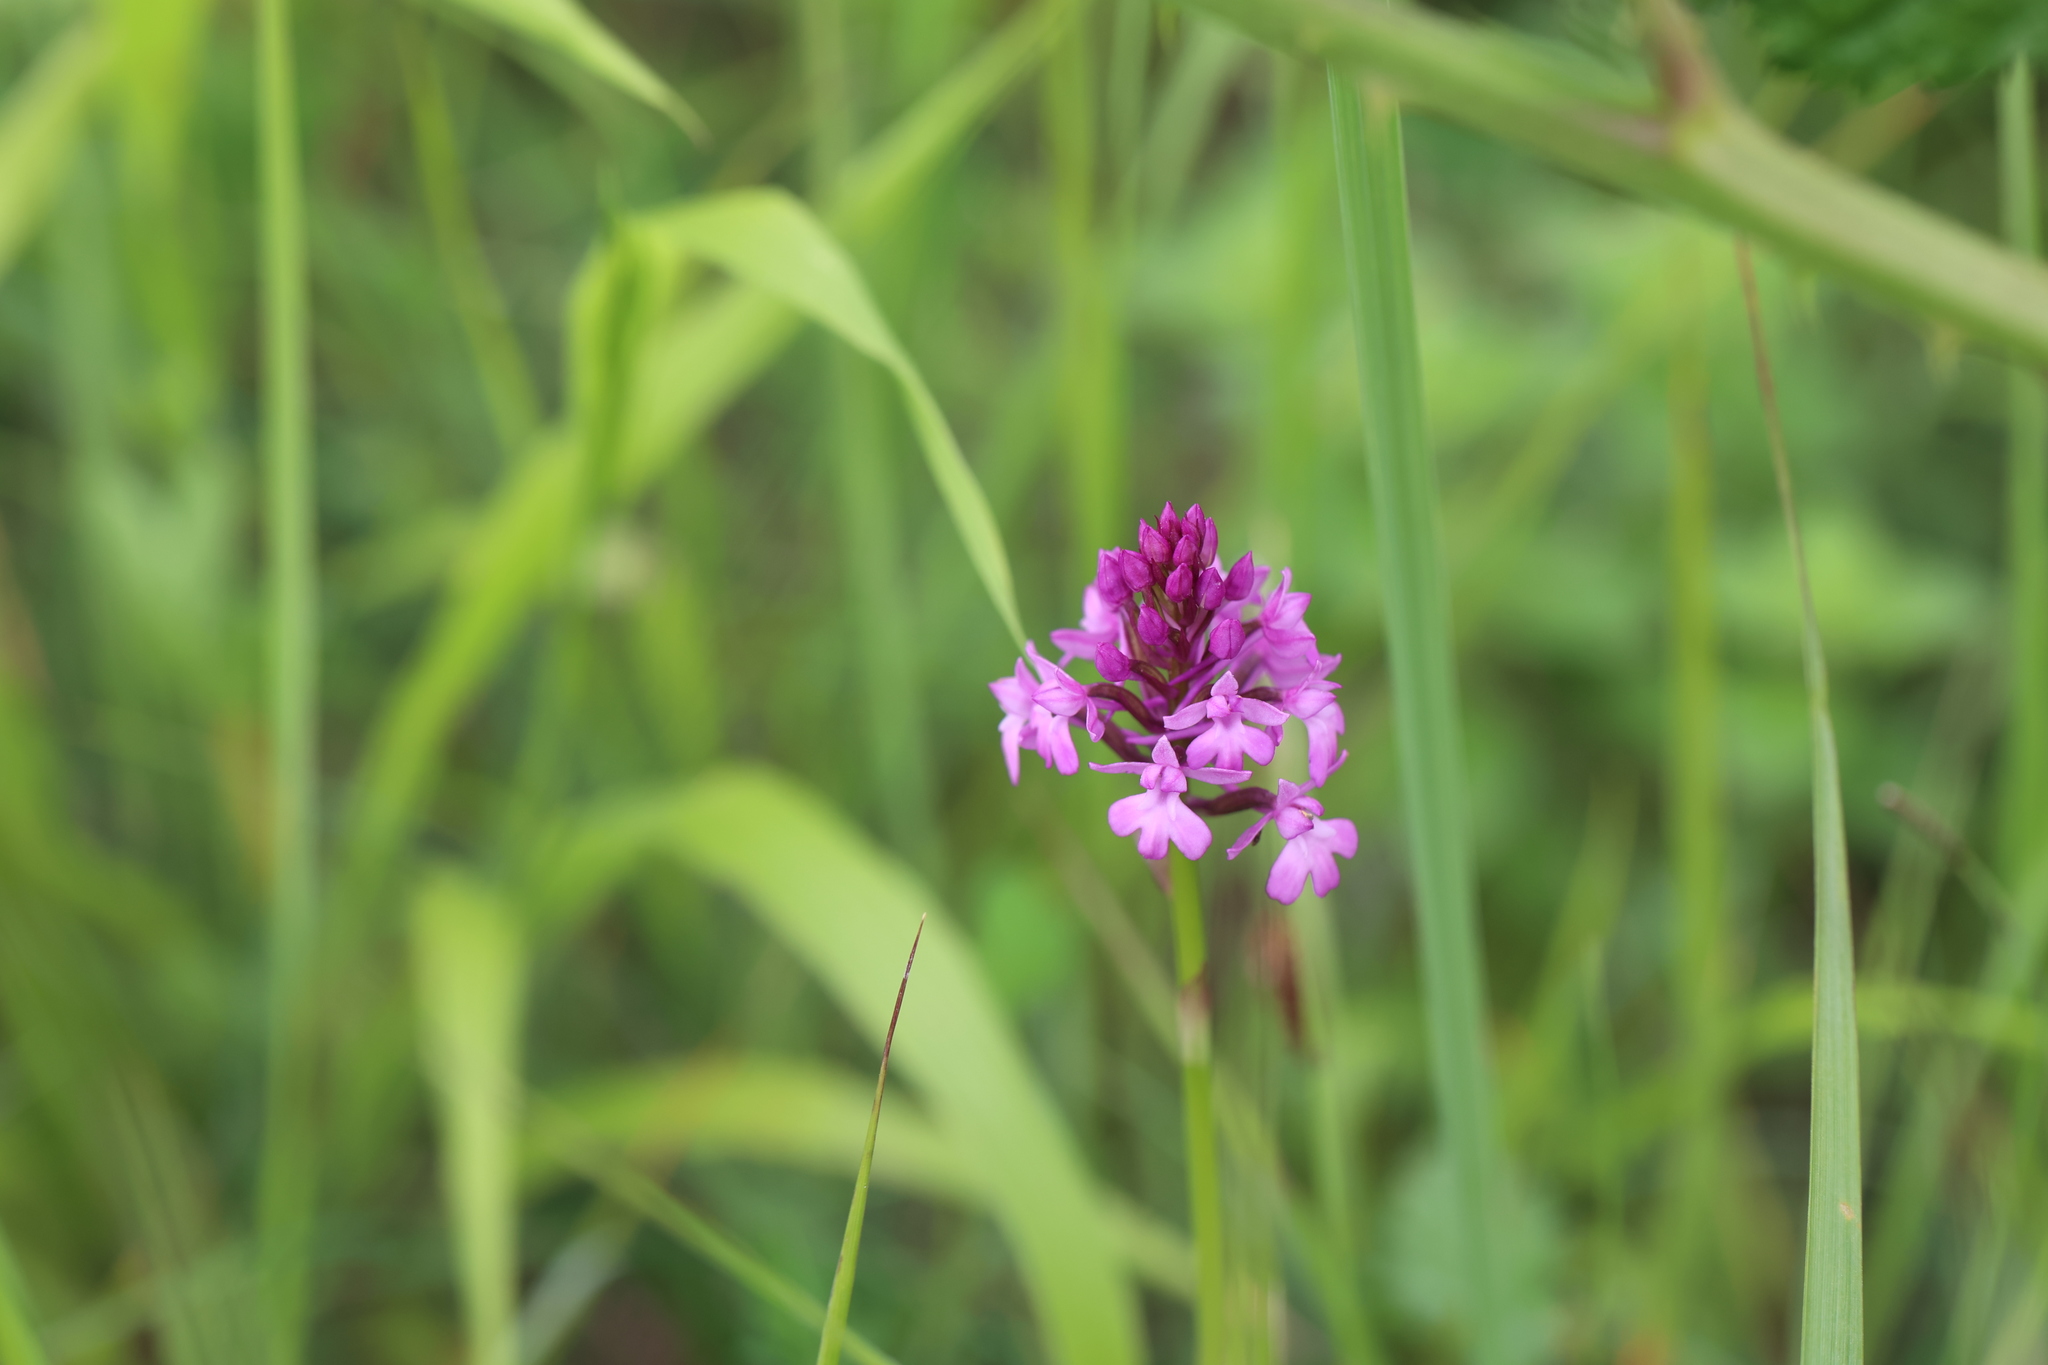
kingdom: Plantae
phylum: Tracheophyta
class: Liliopsida
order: Asparagales
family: Orchidaceae
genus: Anacamptis
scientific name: Anacamptis pyramidalis
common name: Pyramidal orchid
